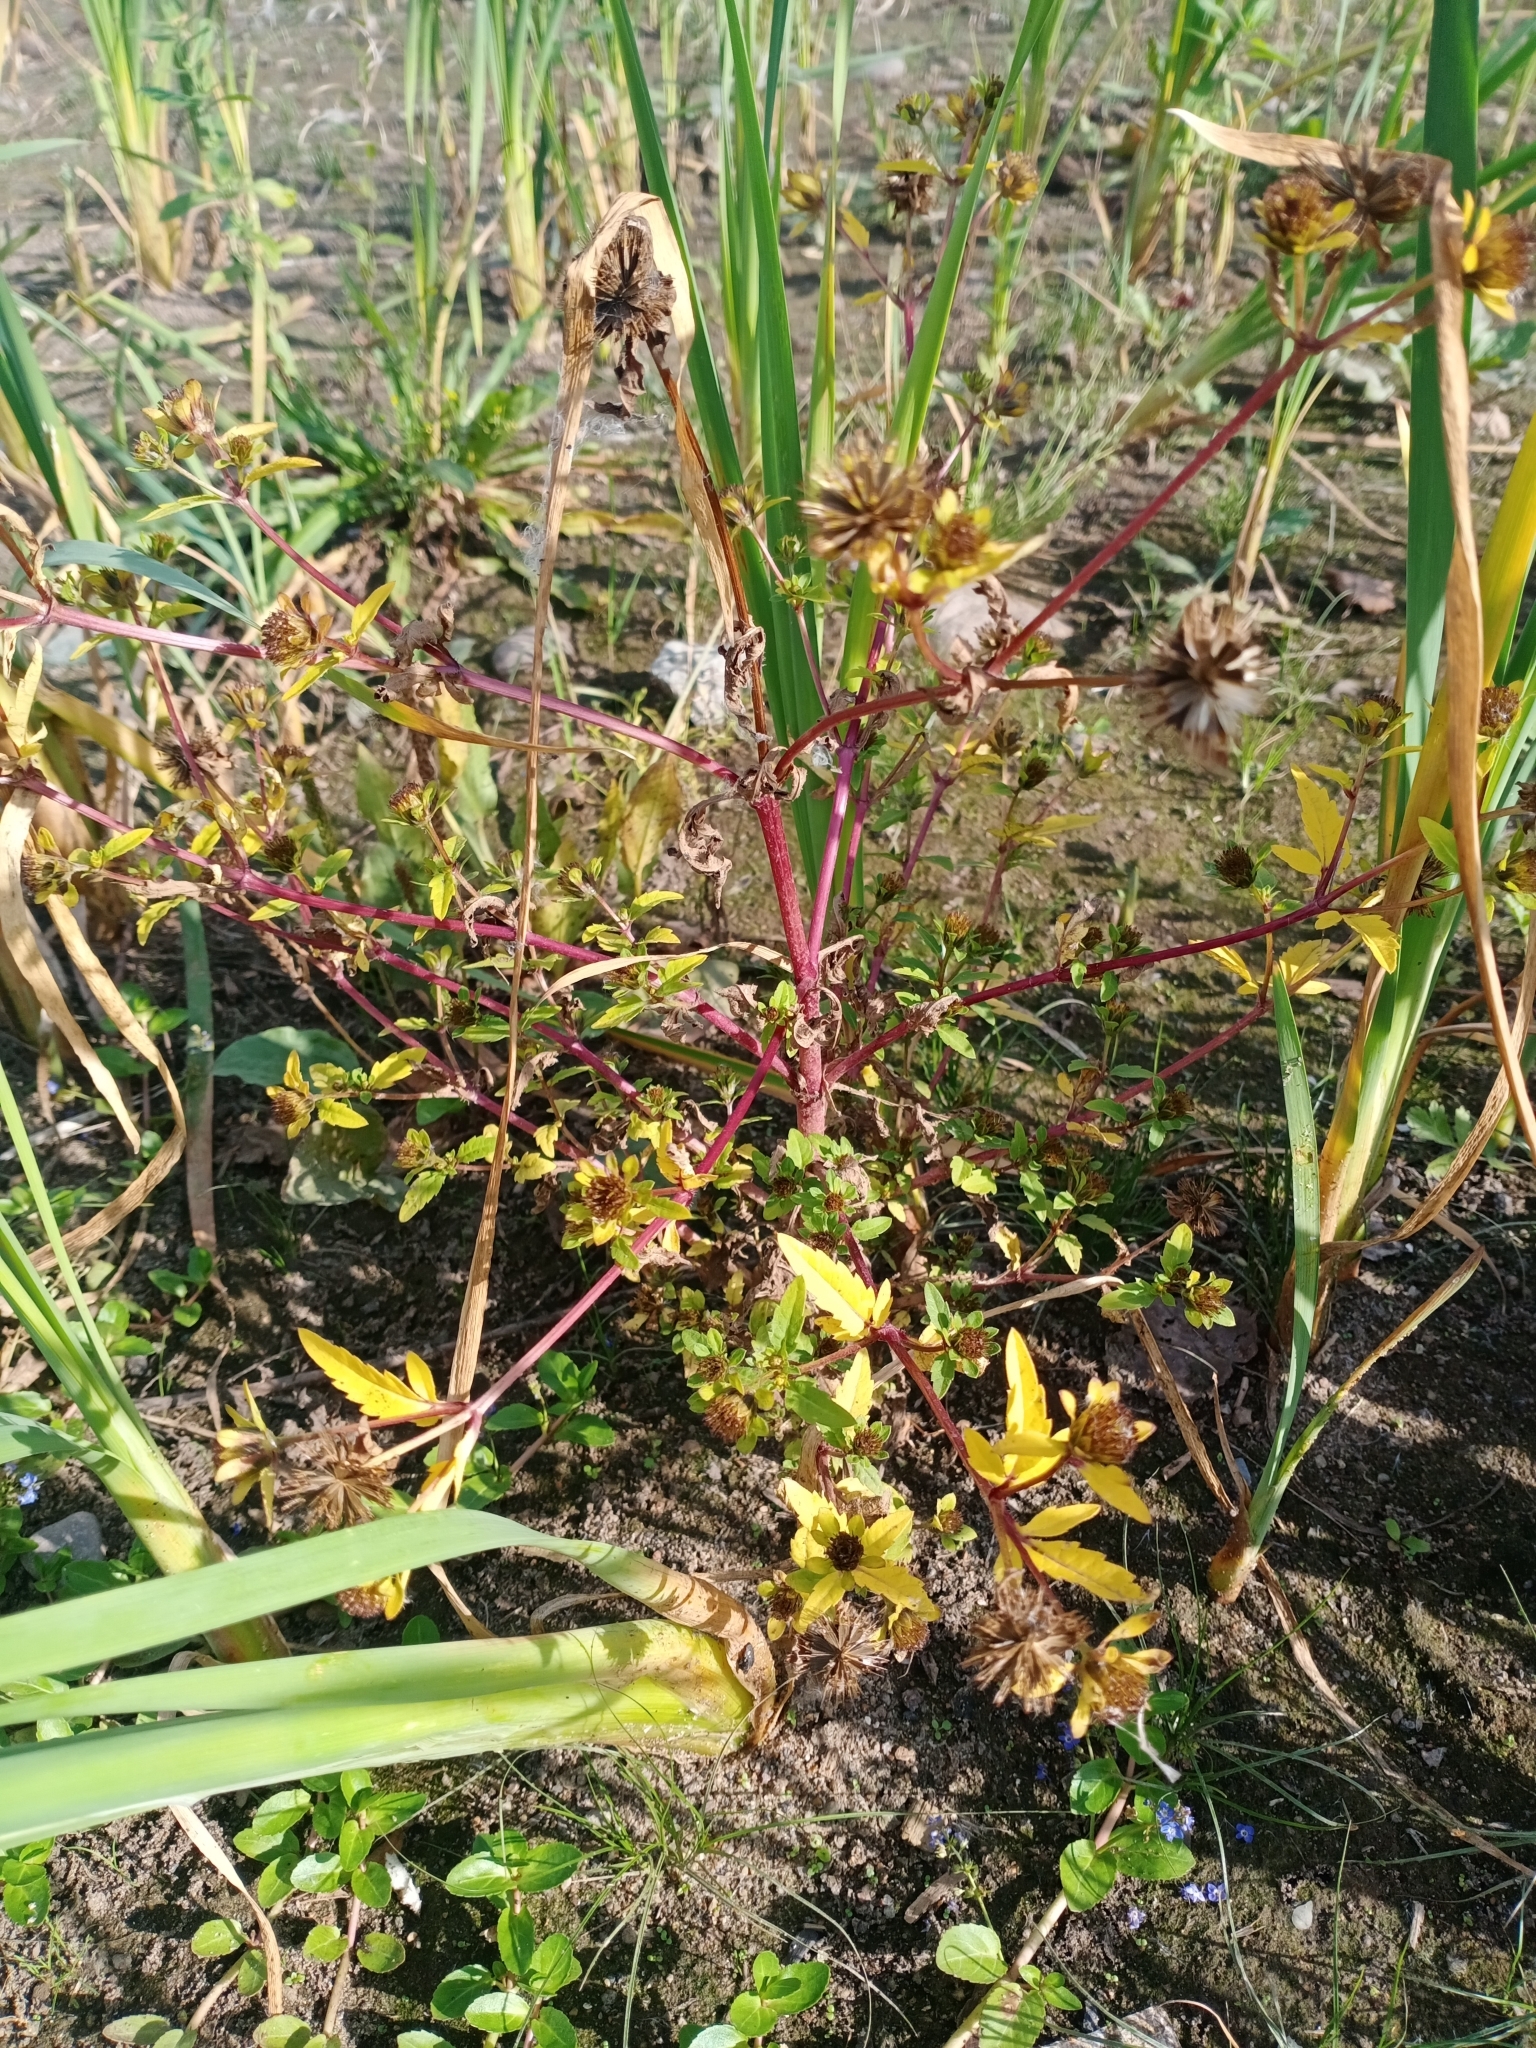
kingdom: Plantae
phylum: Tracheophyta
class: Magnoliopsida
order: Asterales
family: Asteraceae
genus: Bidens
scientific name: Bidens tripartita
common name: Trifid bur-marigold
